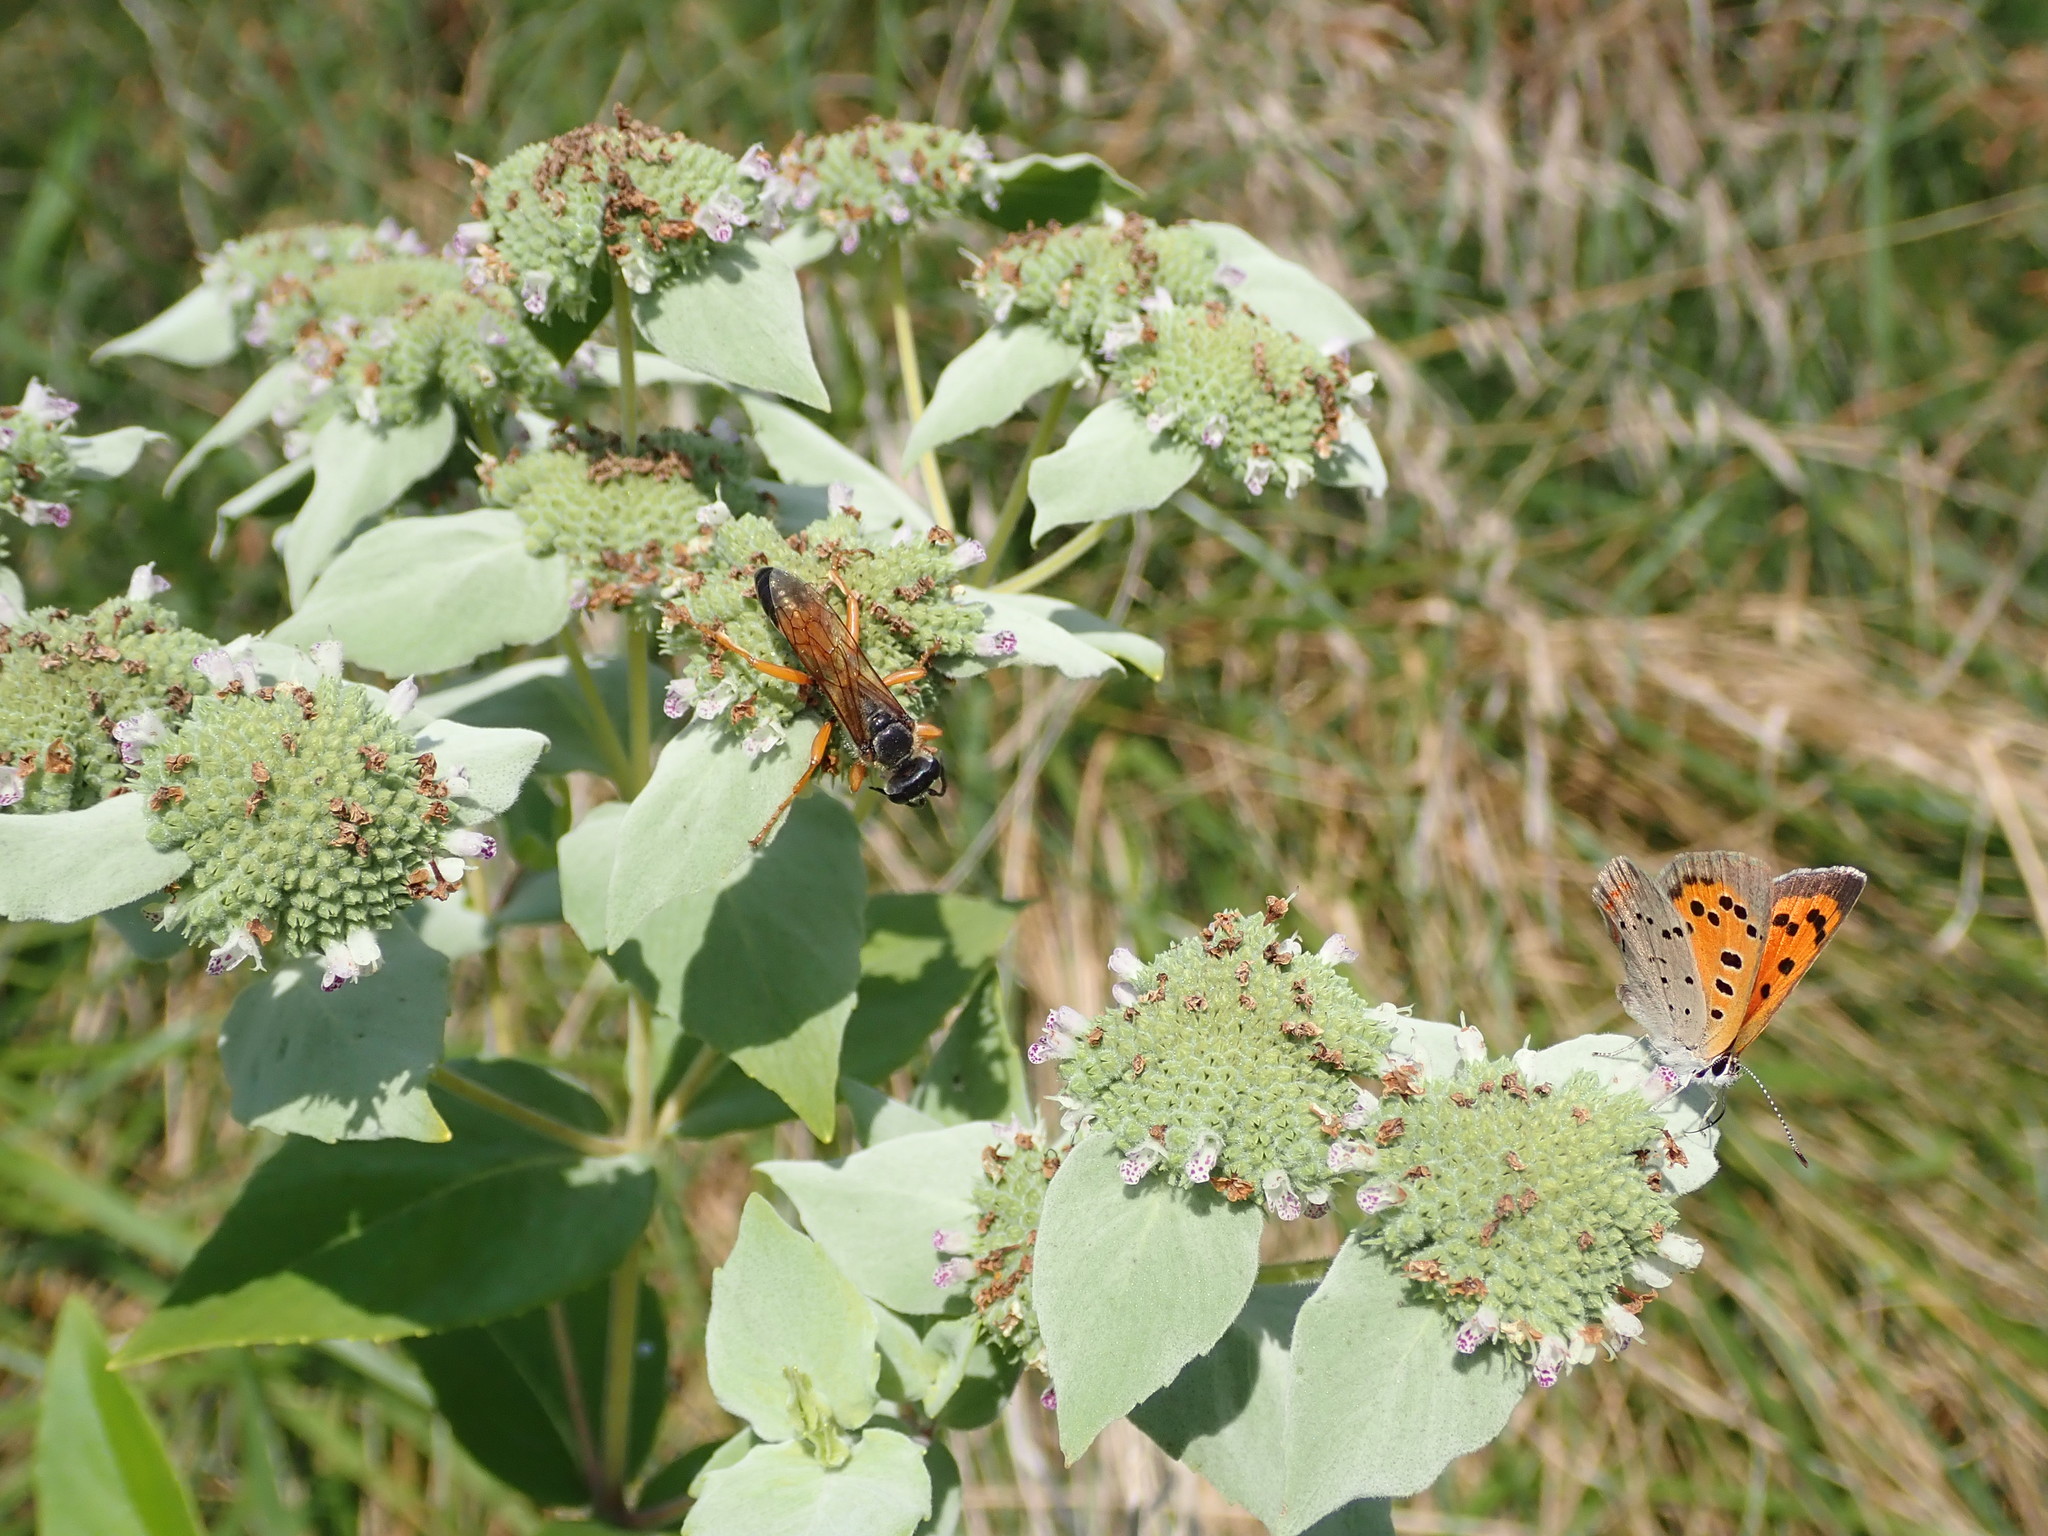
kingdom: Animalia
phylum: Arthropoda
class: Insecta
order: Hymenoptera
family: Sphecidae
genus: Sphex
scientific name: Sphex ichneumoneus
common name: Great golden digger wasp
